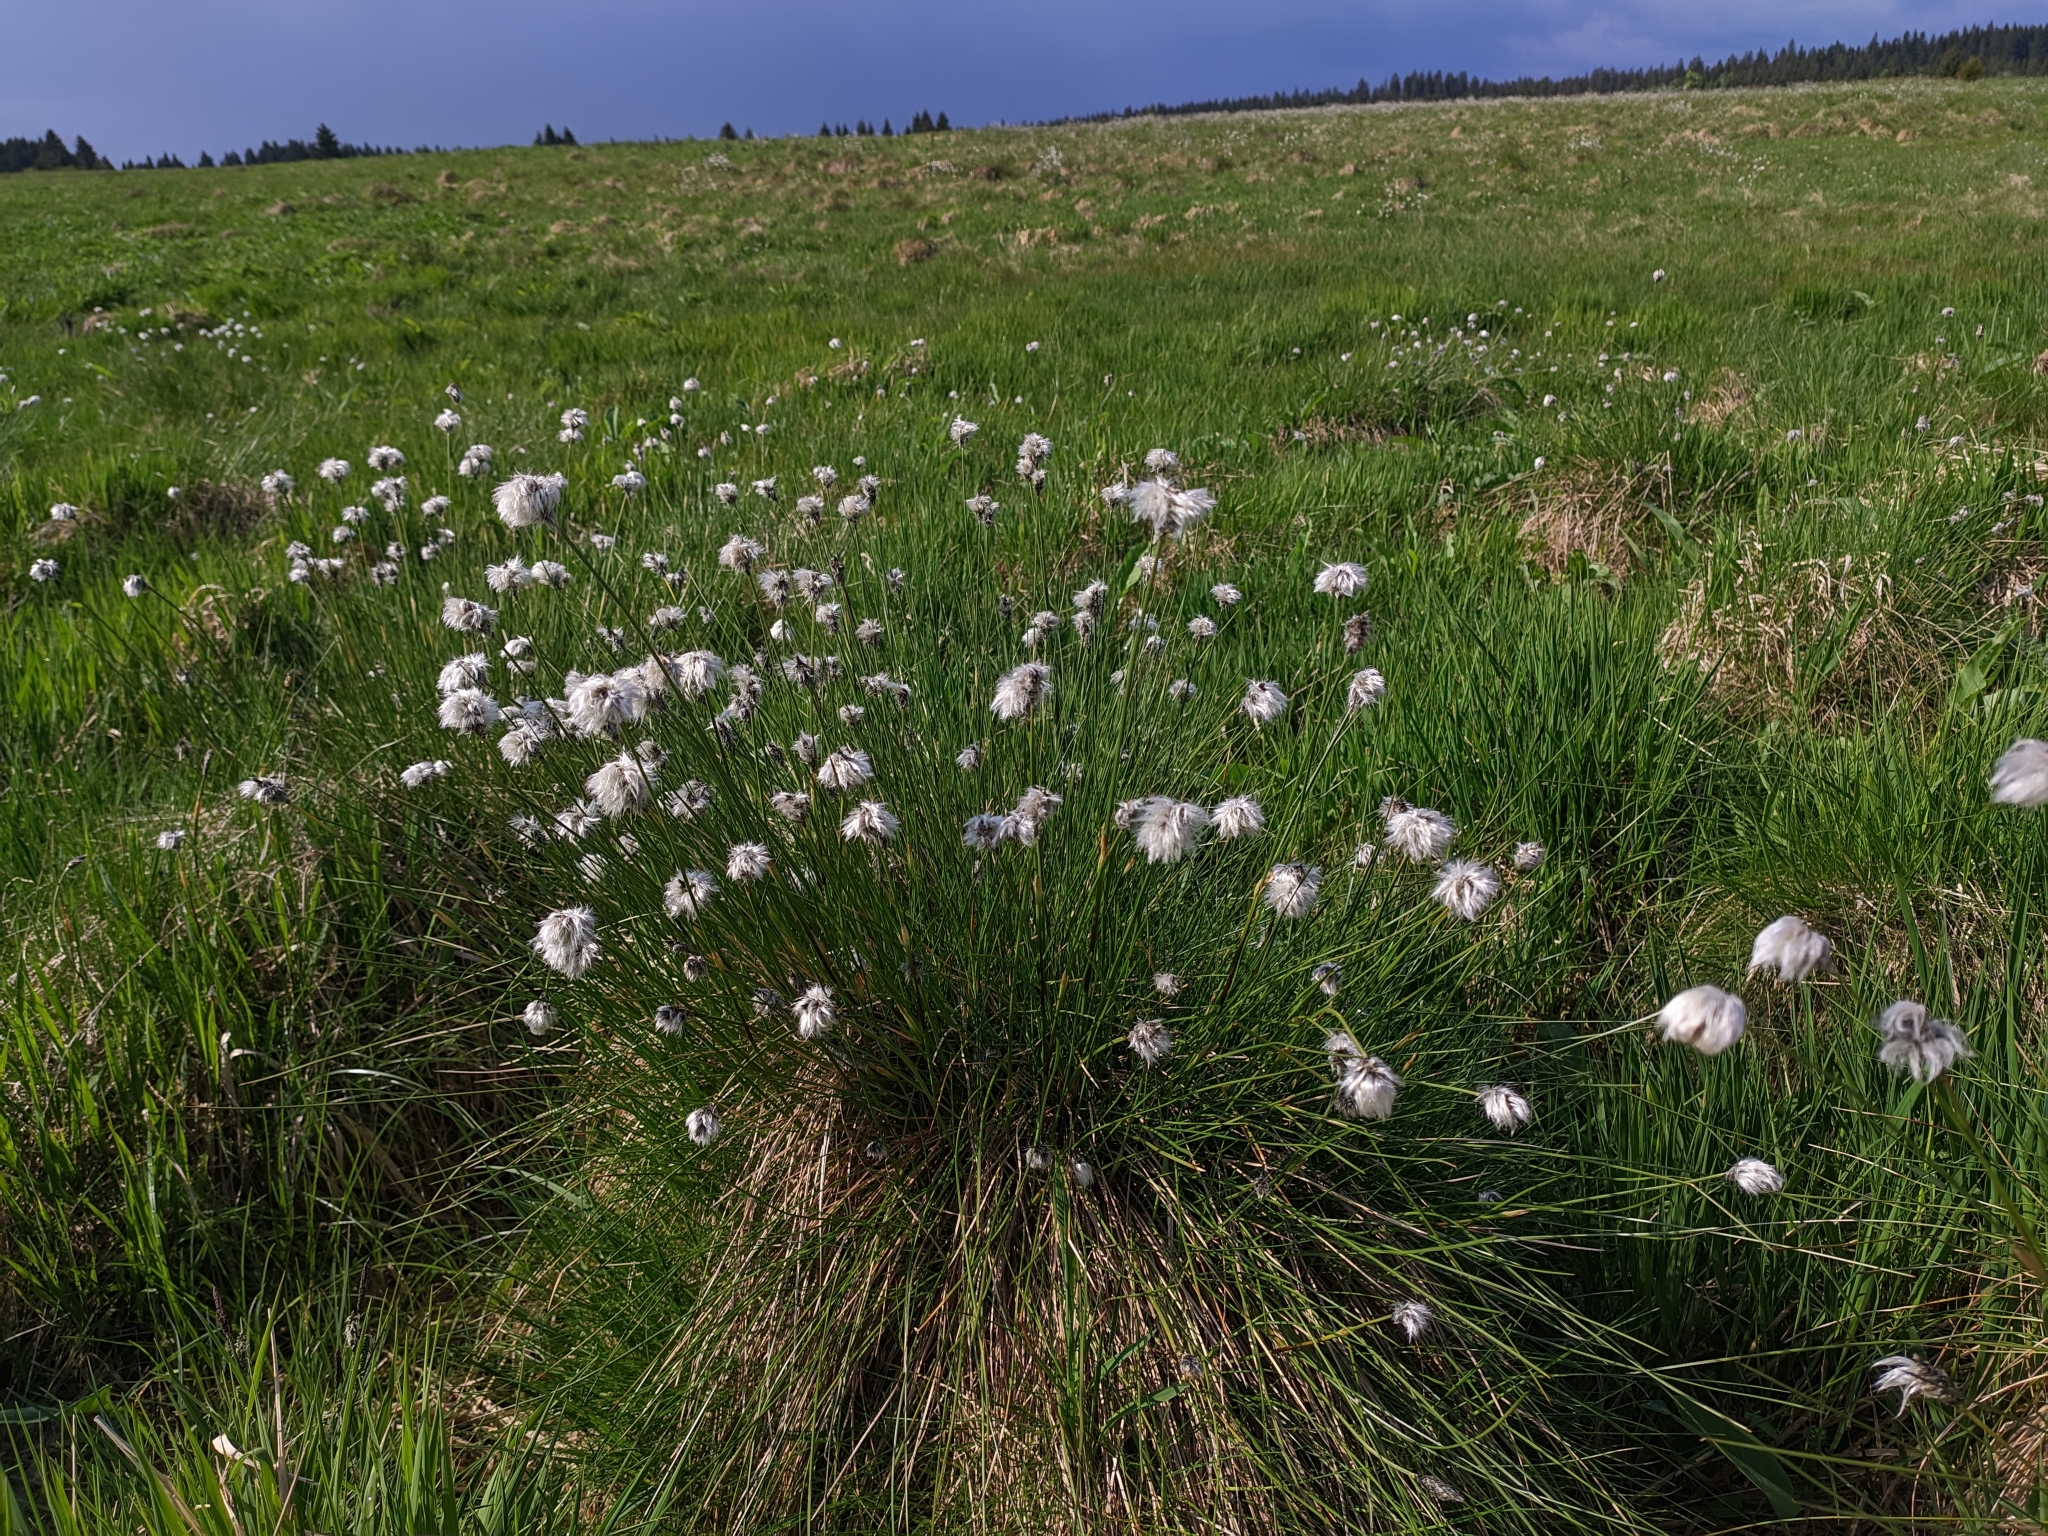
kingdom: Plantae
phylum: Tracheophyta
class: Liliopsida
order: Poales
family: Cyperaceae
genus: Eriophorum
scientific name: Eriophorum vaginatum
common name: Hare's-tail cottongrass
